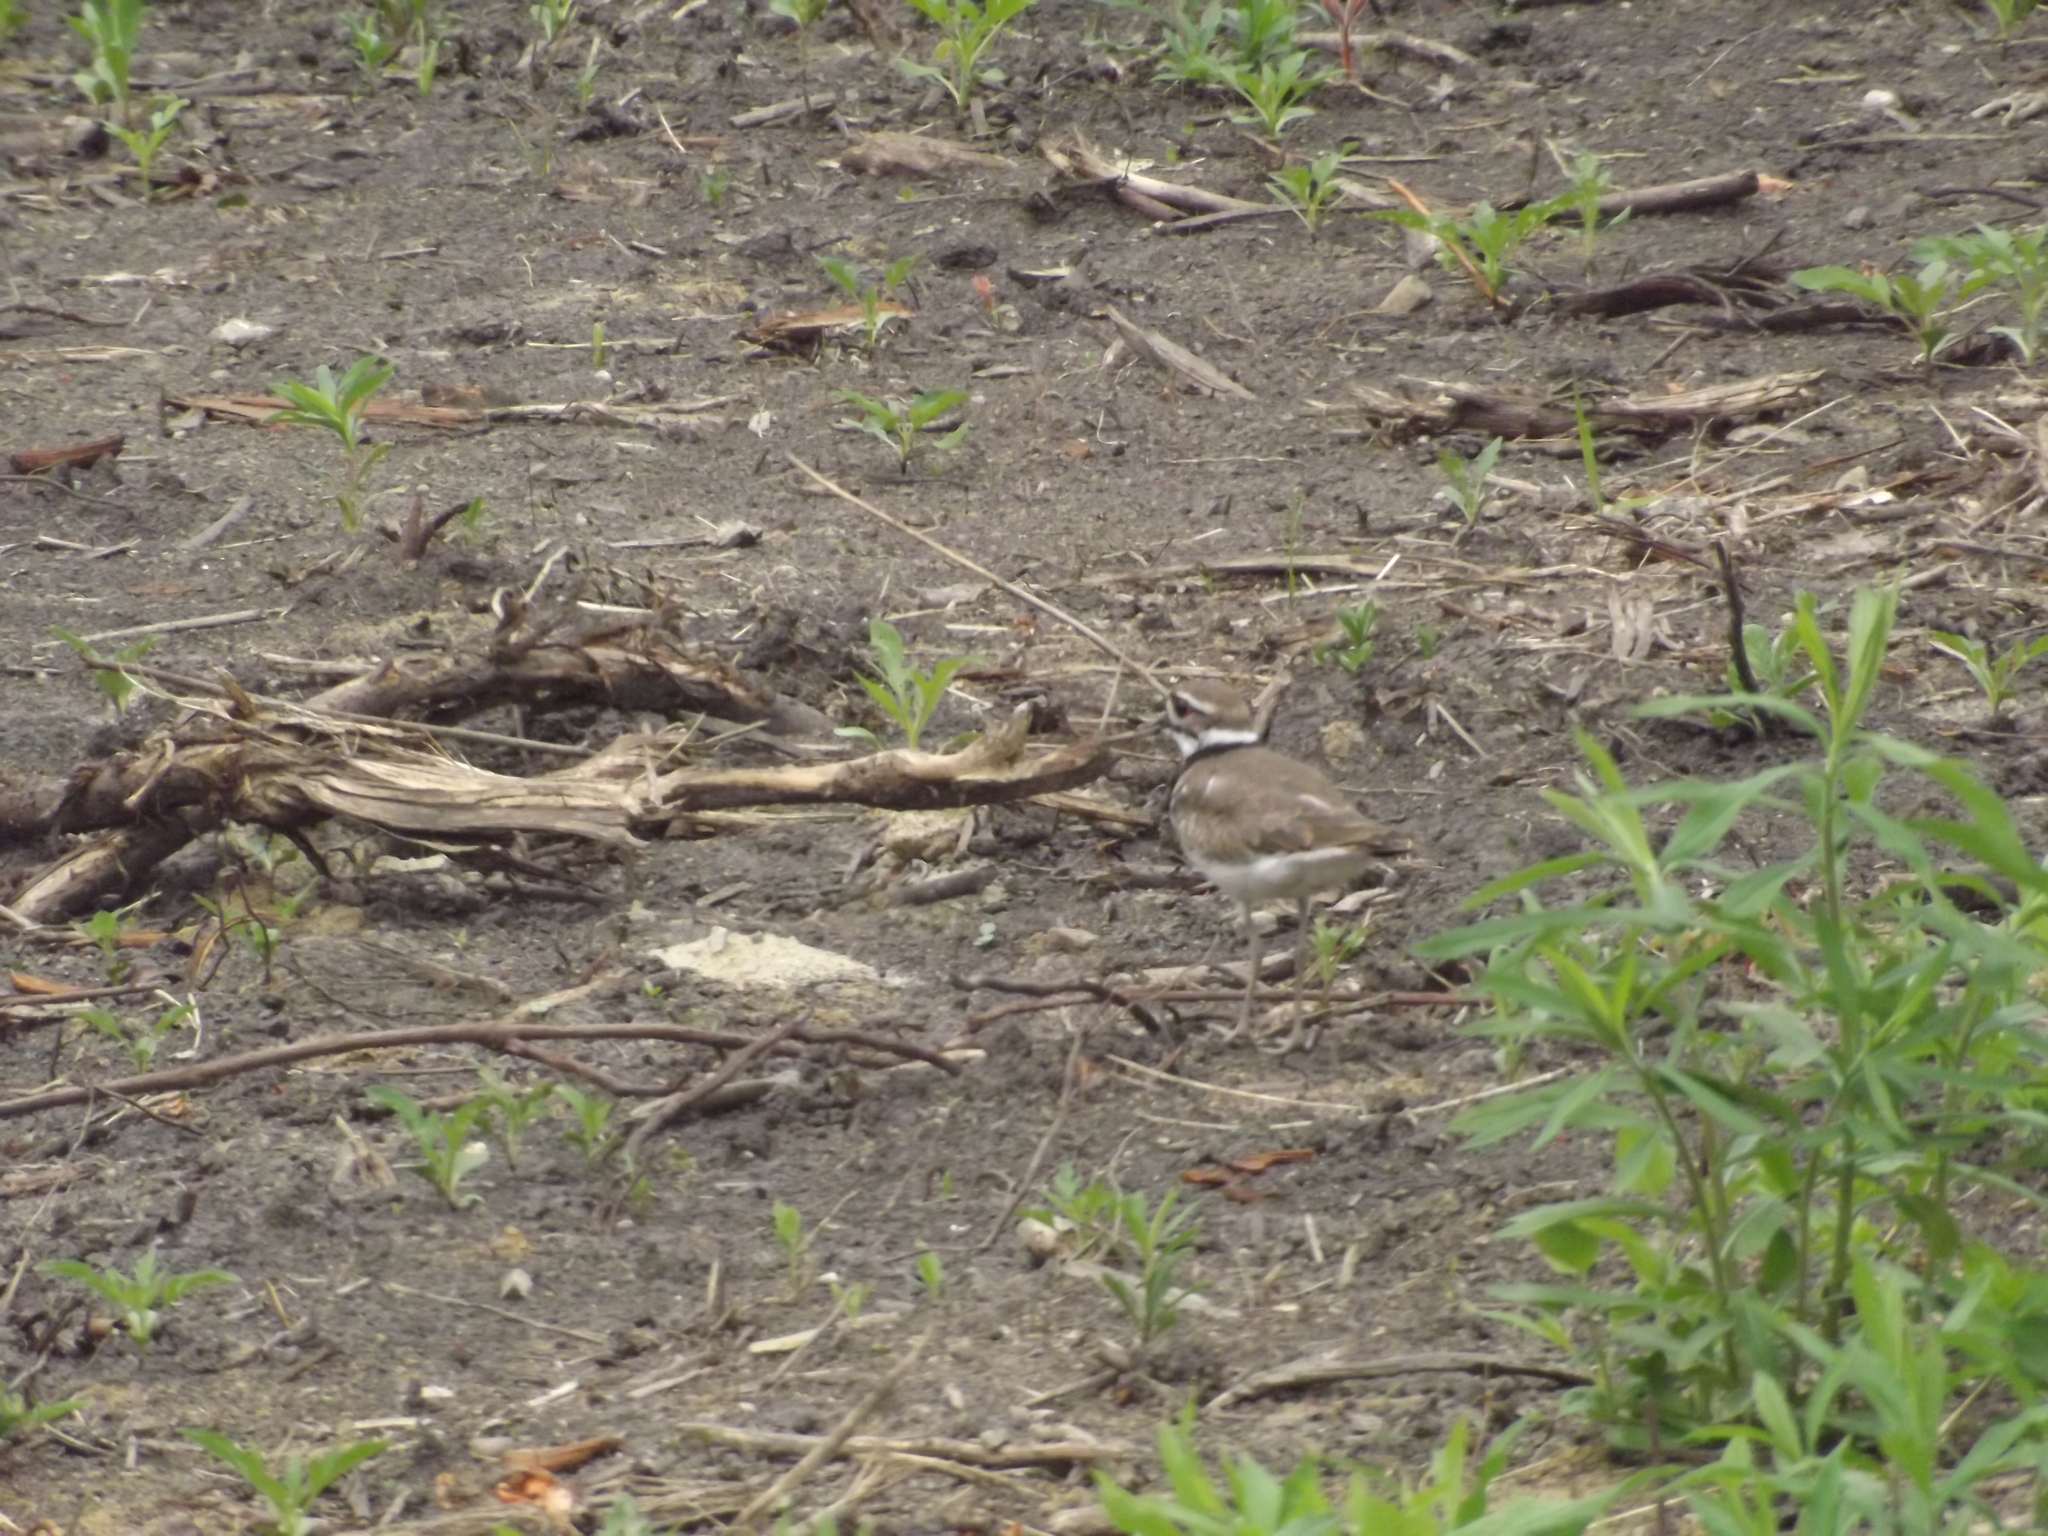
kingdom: Animalia
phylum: Chordata
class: Aves
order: Charadriiformes
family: Charadriidae
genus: Charadrius
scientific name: Charadrius vociferus
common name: Killdeer
